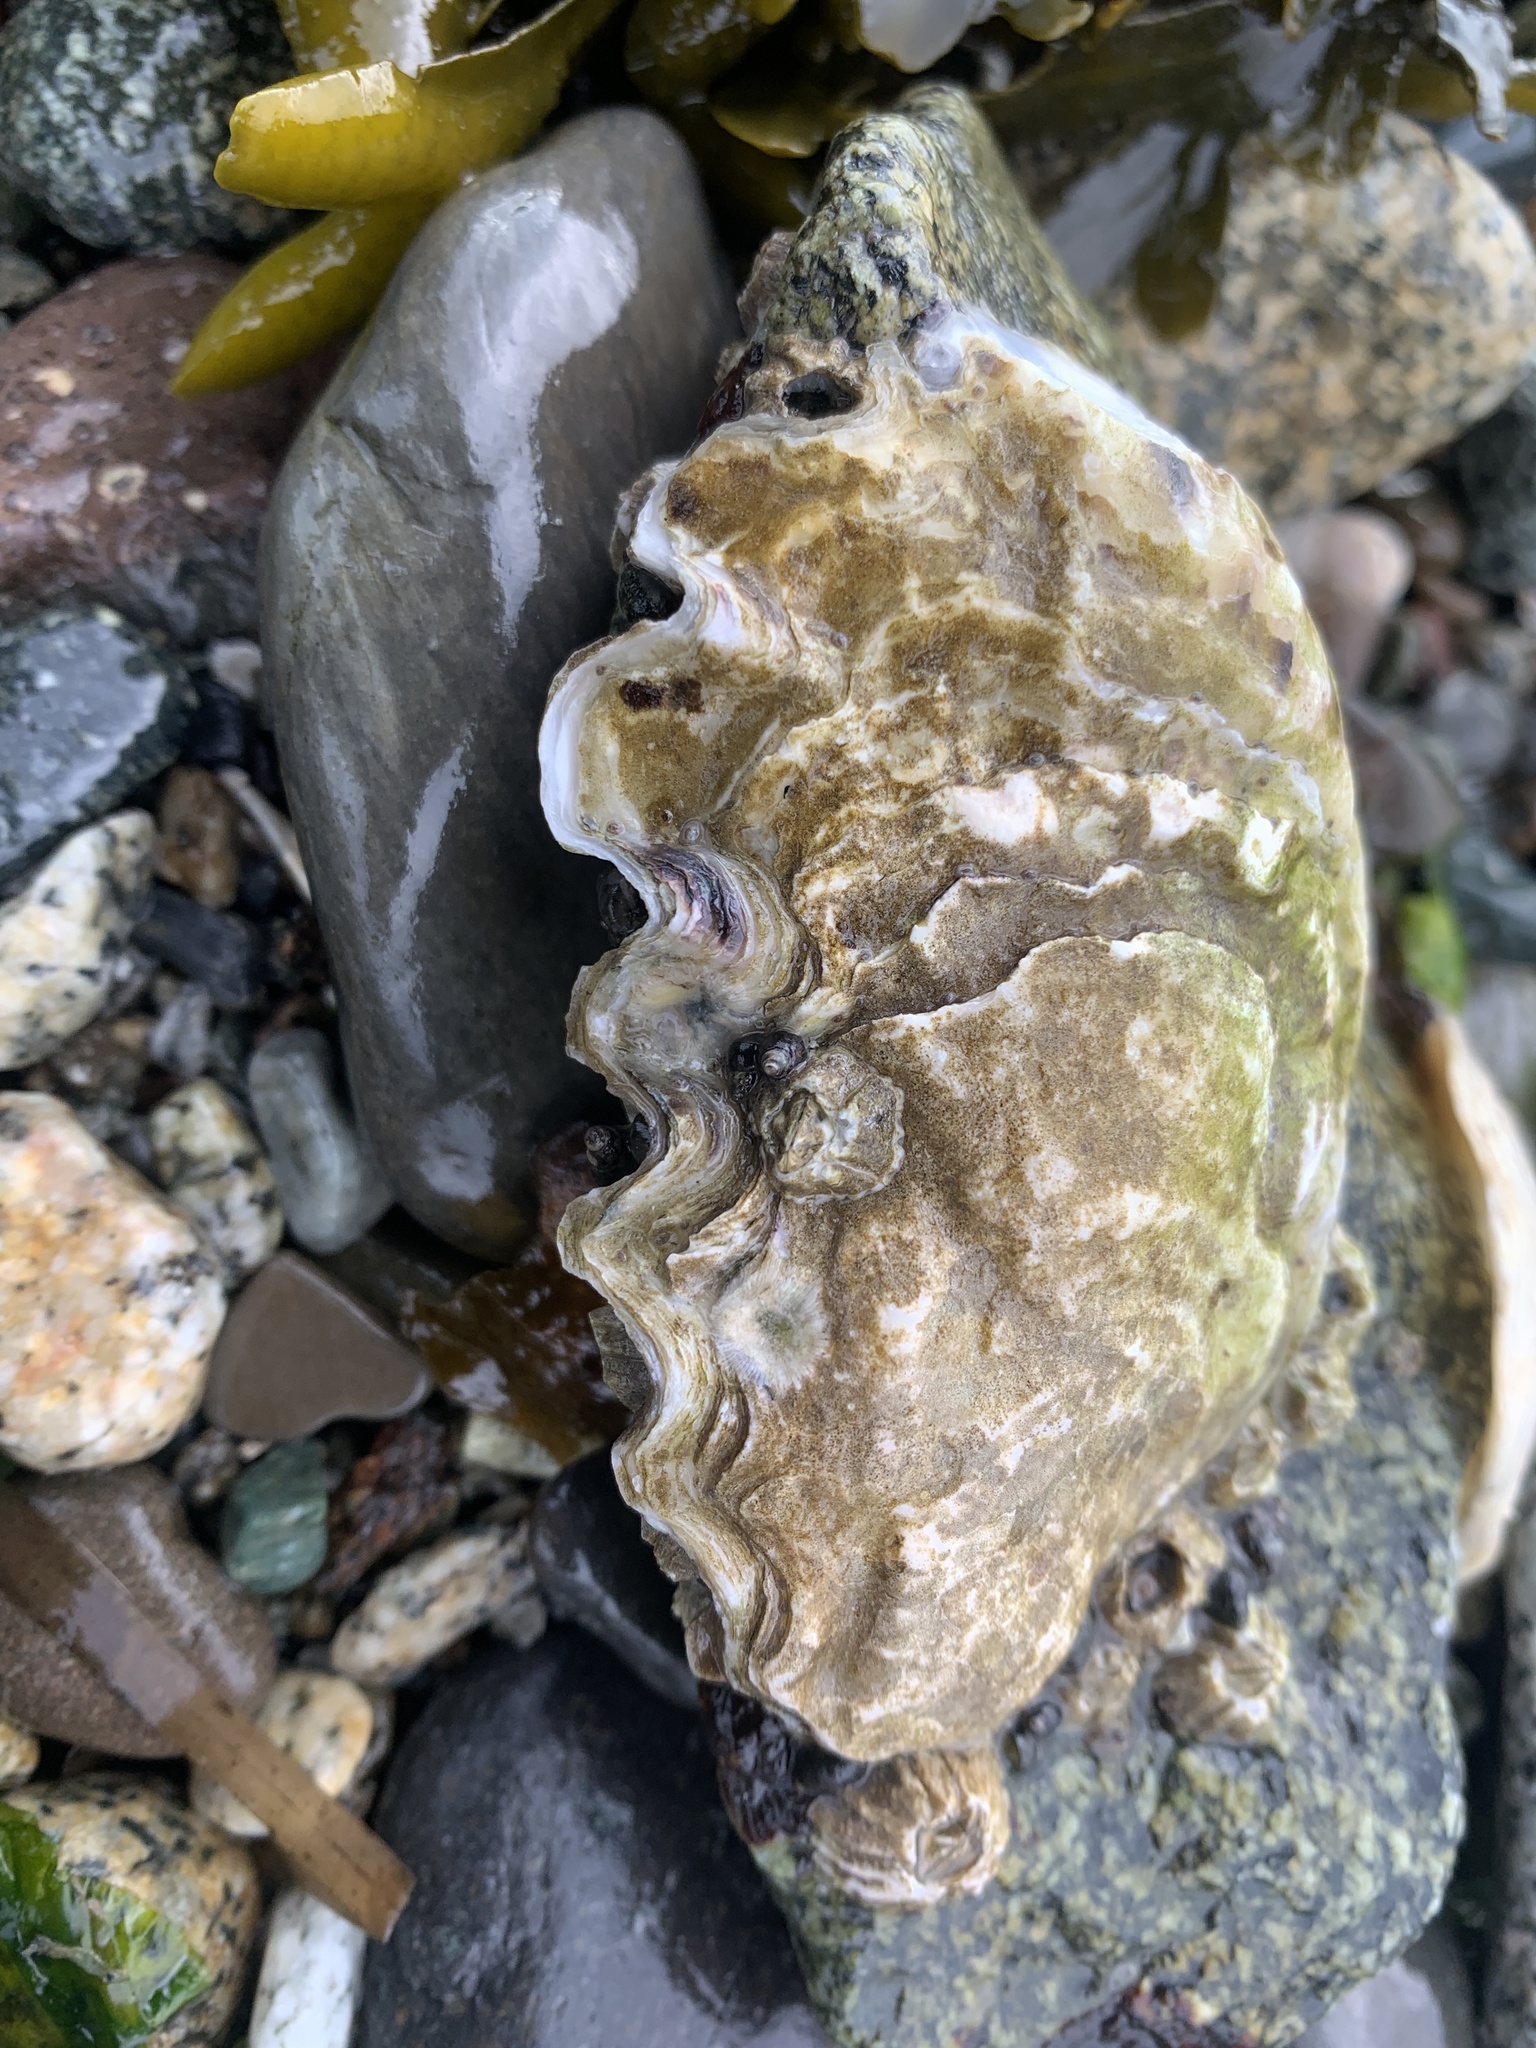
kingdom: Animalia
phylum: Mollusca
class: Bivalvia
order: Ostreida
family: Ostreidae
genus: Magallana
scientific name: Magallana gigas
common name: Pacific oyster
